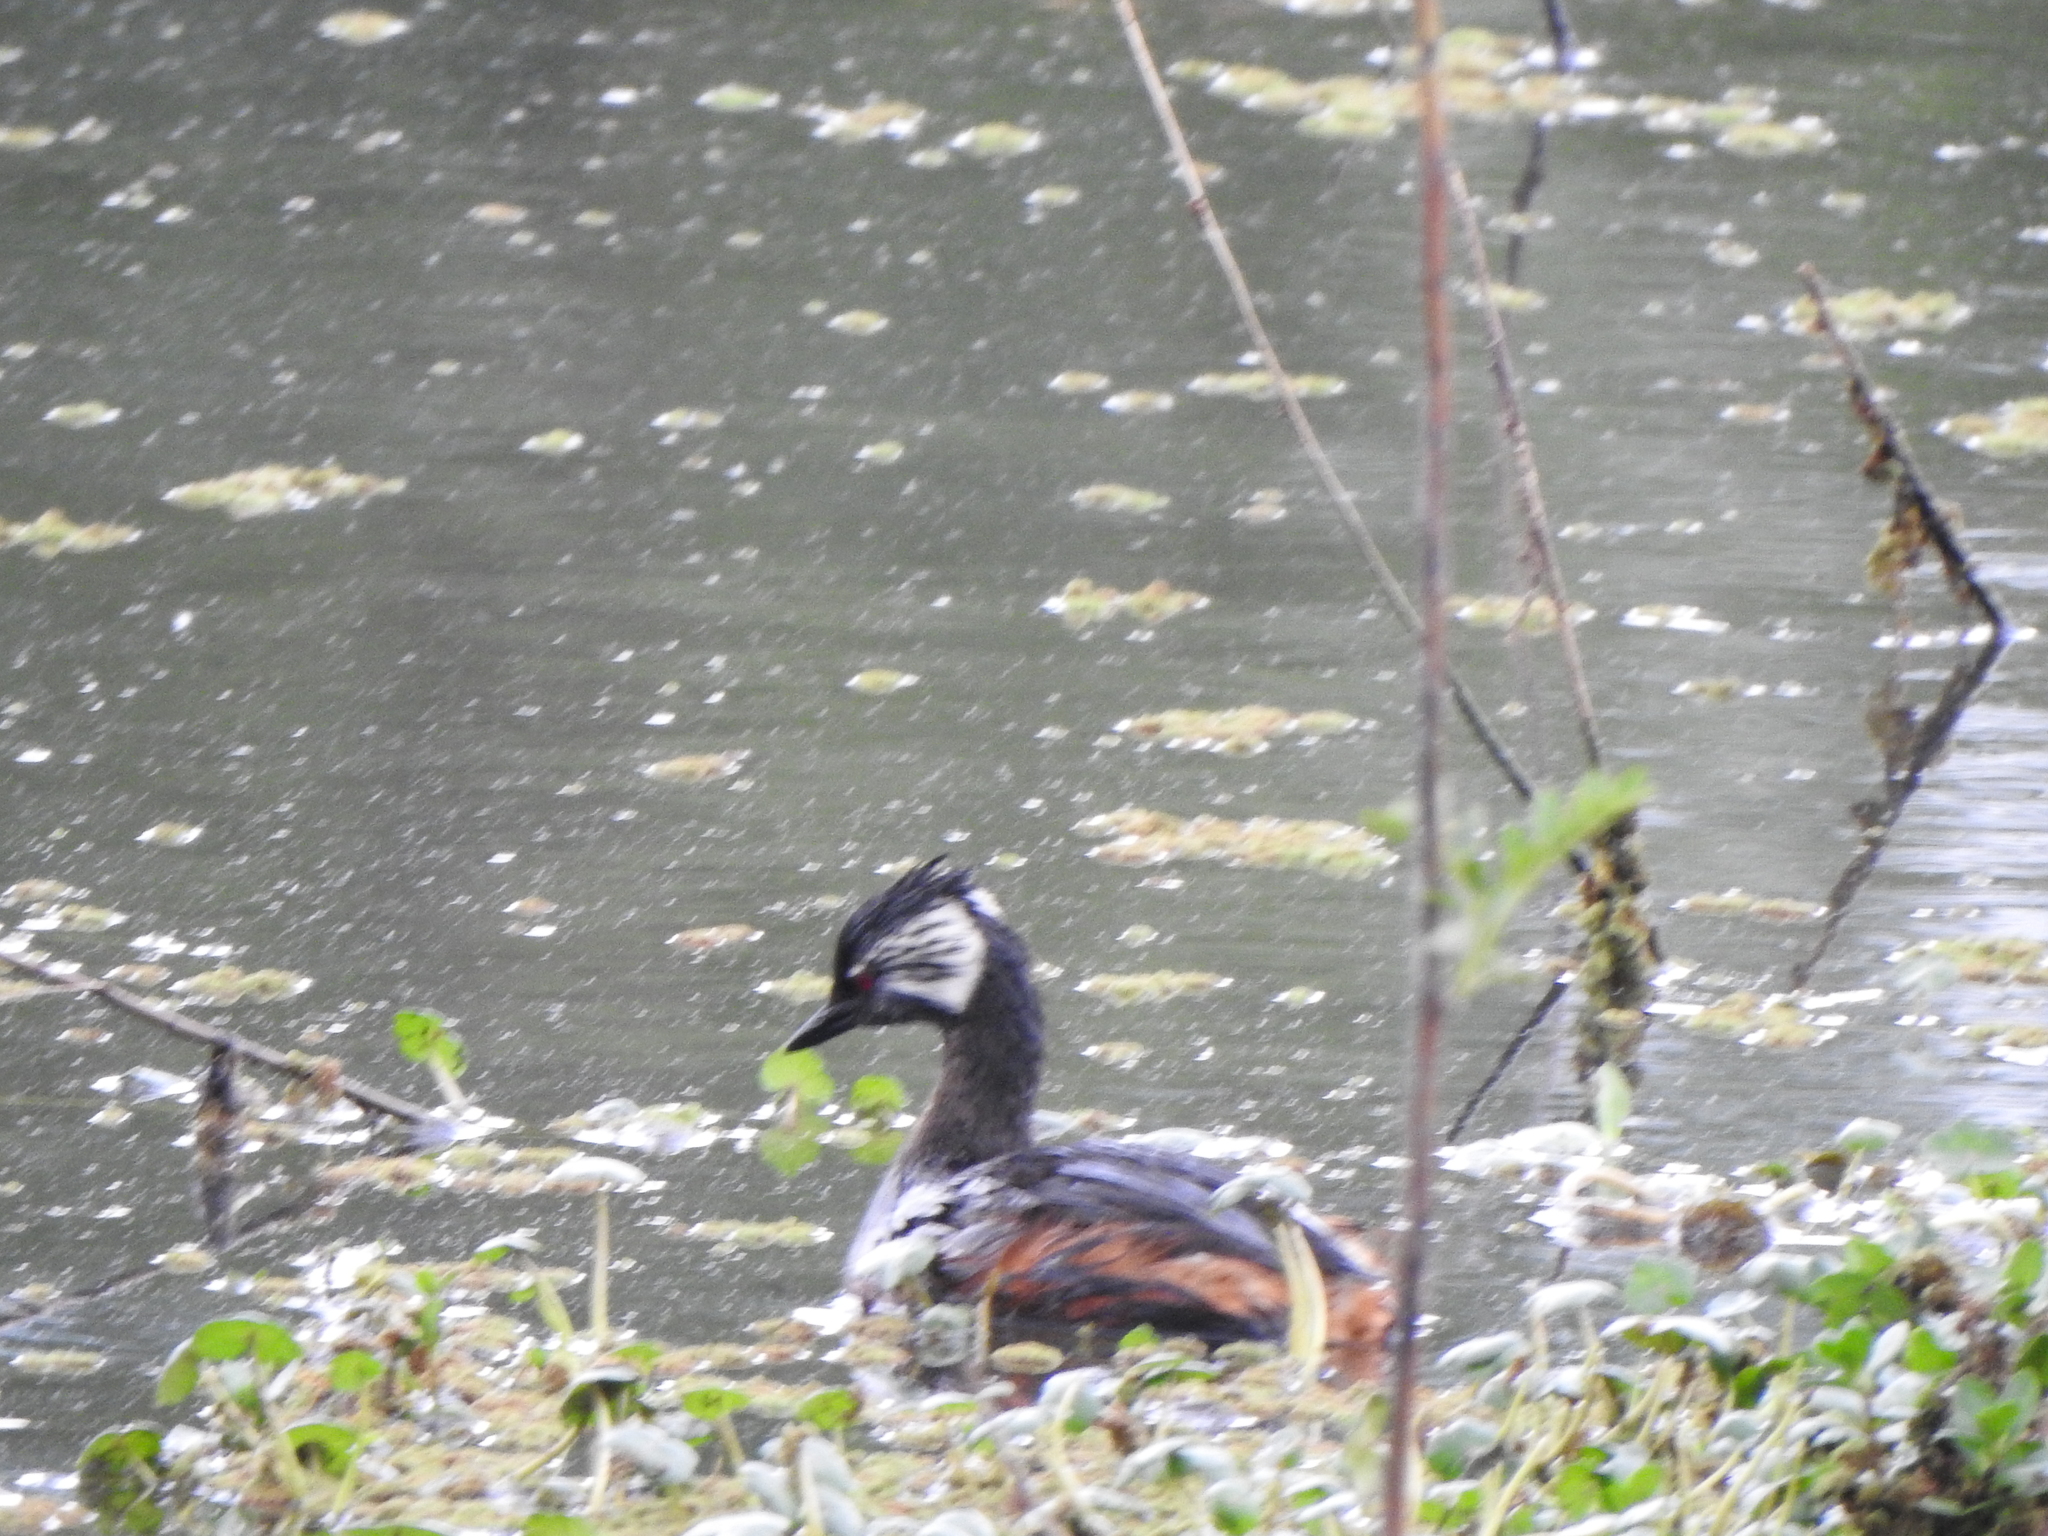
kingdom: Animalia
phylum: Chordata
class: Aves
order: Podicipediformes
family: Podicipedidae
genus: Rollandia
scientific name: Rollandia rolland
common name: White-tufted grebe
